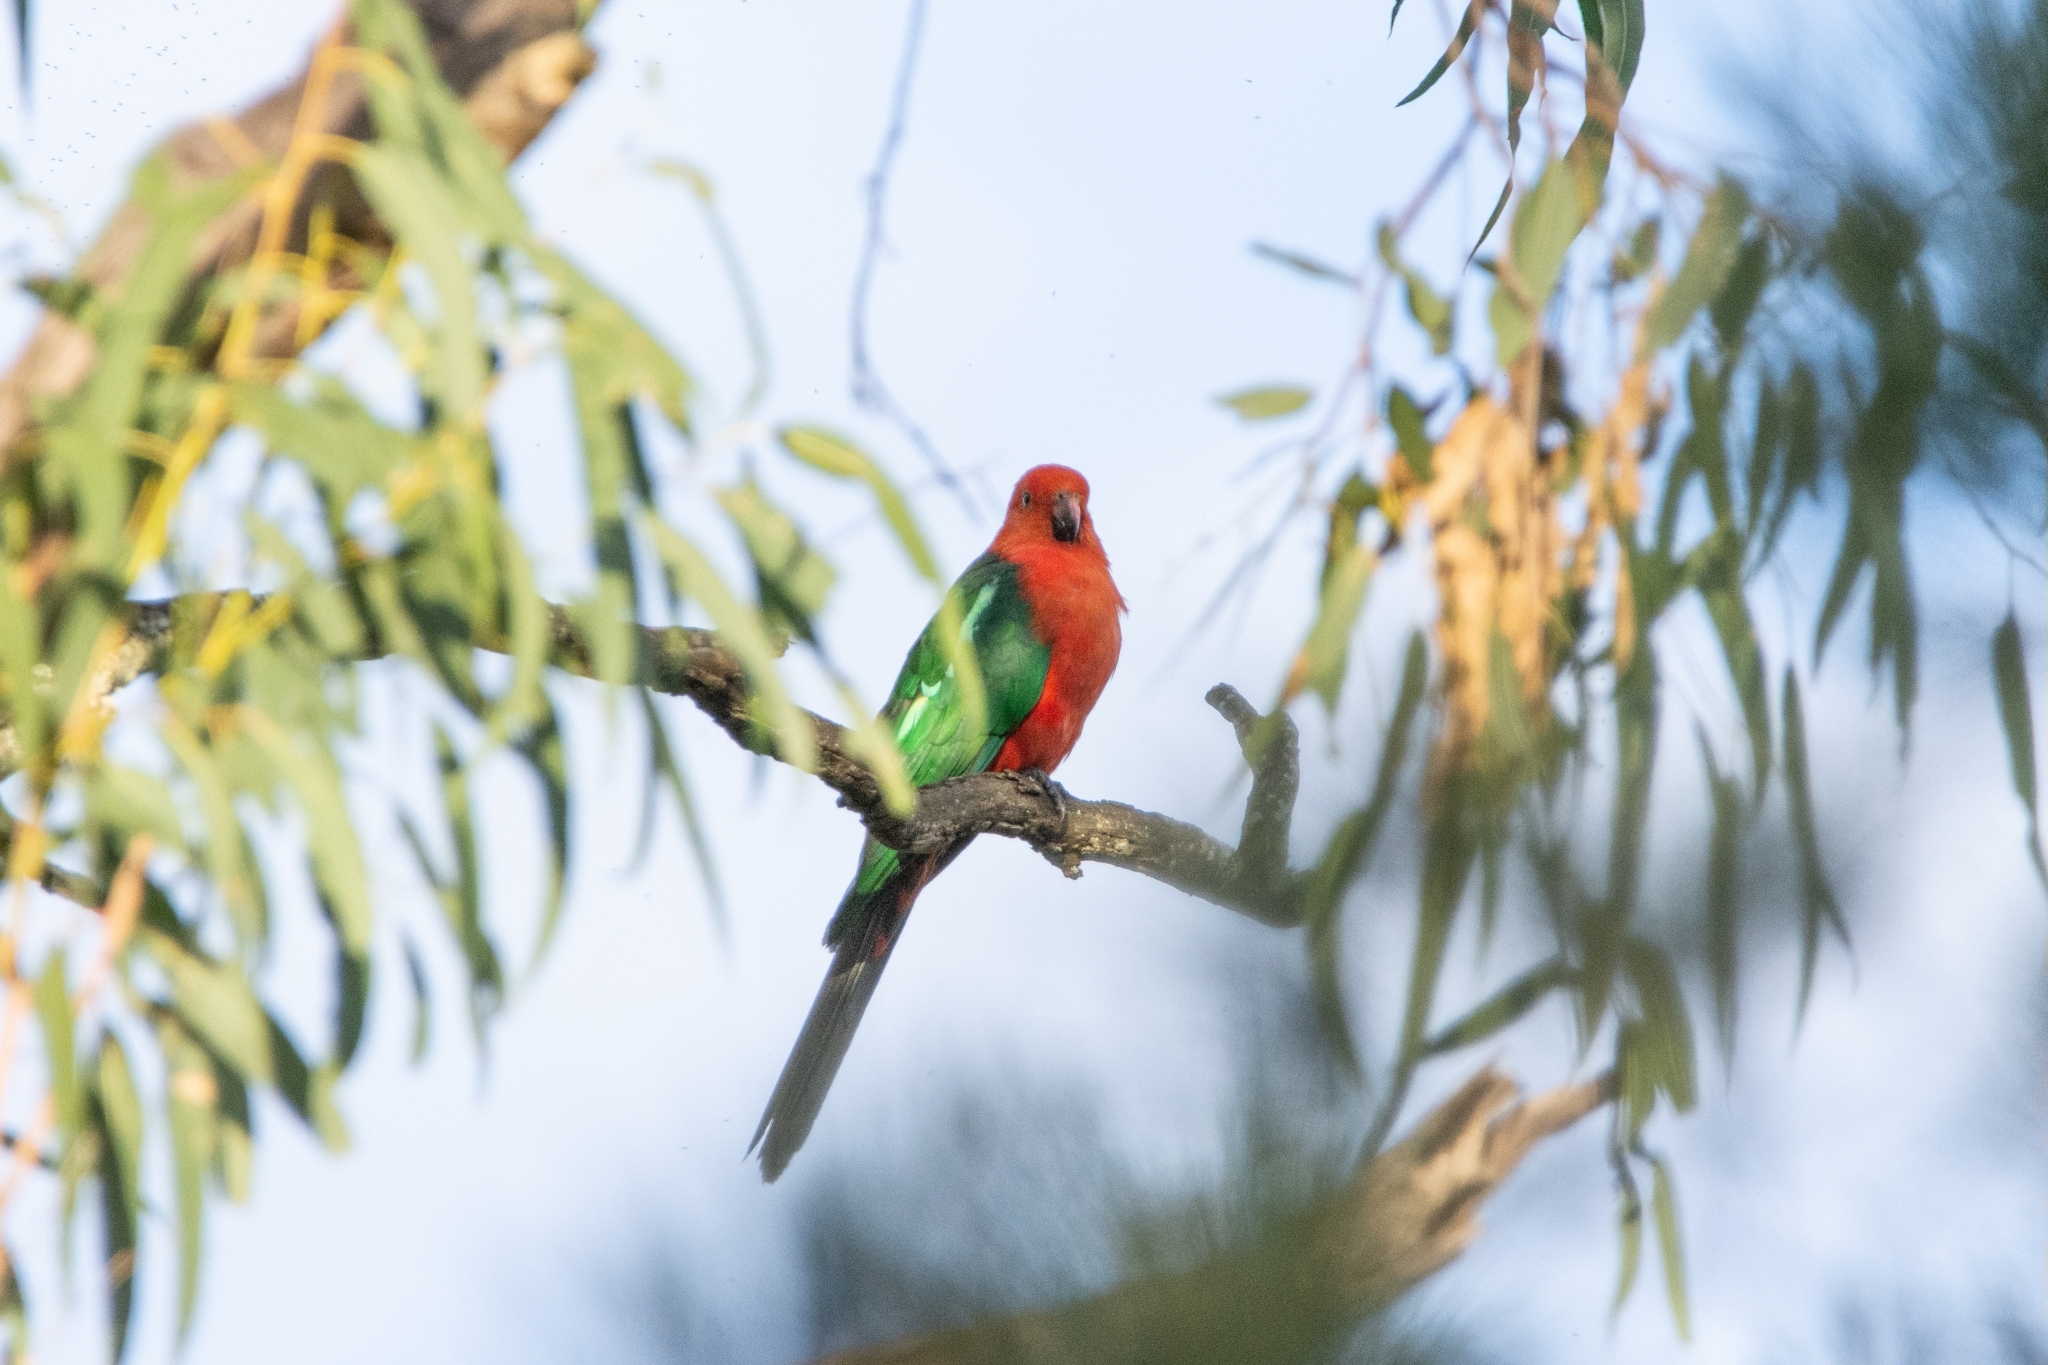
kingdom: Animalia
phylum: Chordata
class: Aves
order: Psittaciformes
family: Psittacidae
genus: Alisterus
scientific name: Alisterus scapularis
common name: Australian king parrot
